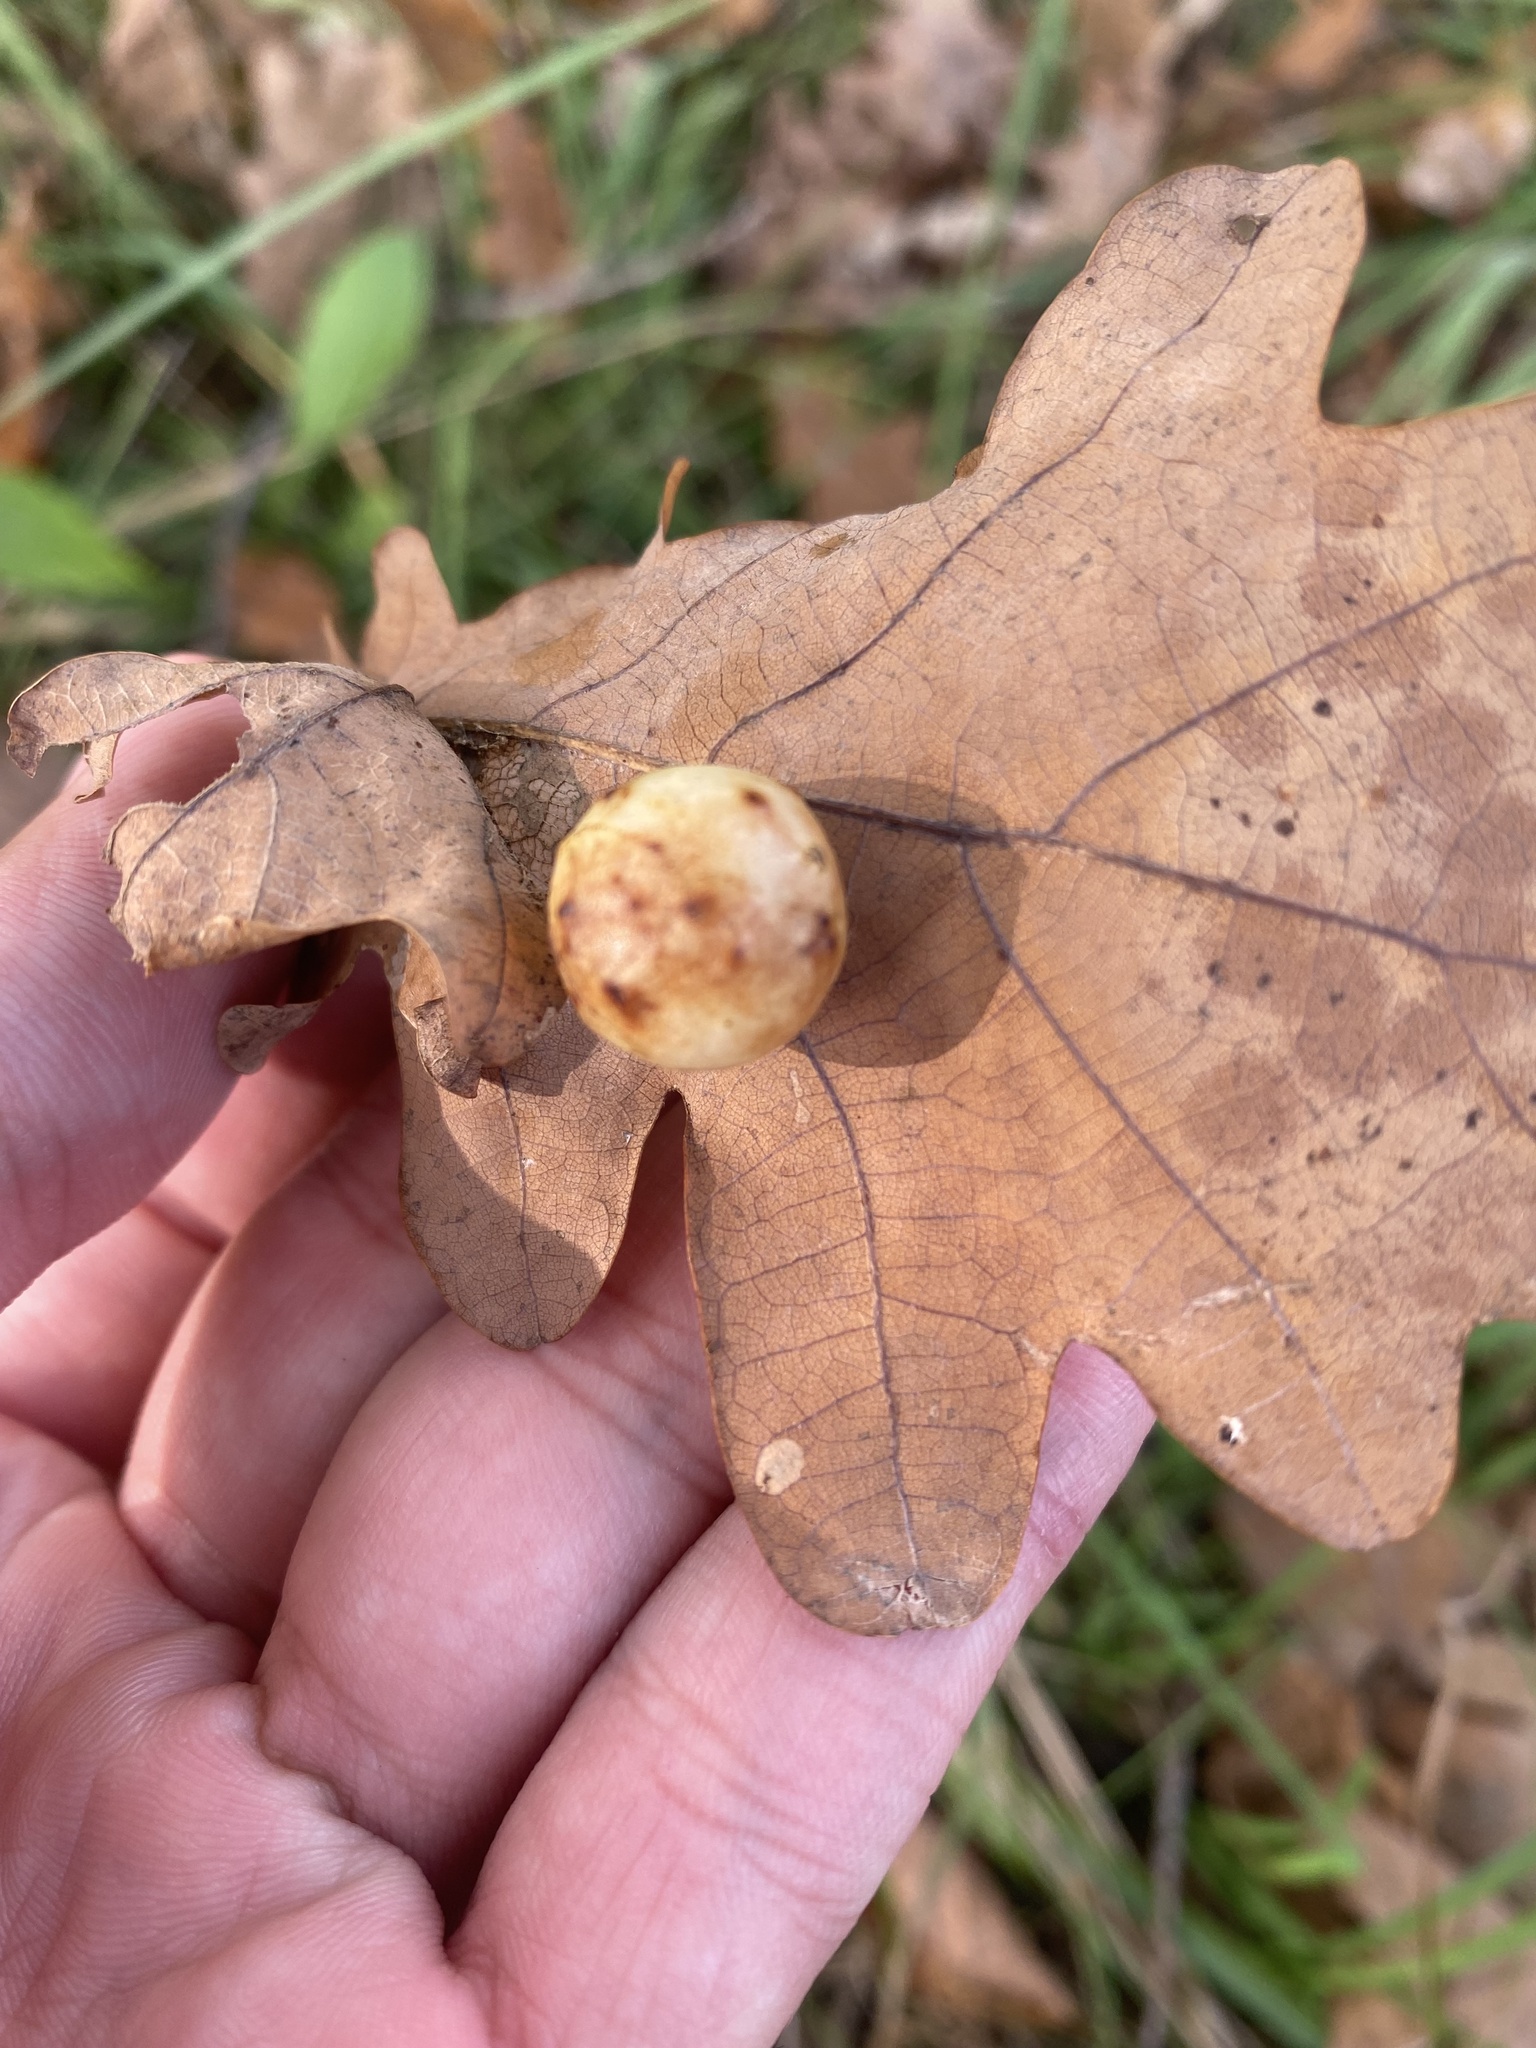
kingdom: Animalia
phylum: Arthropoda
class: Insecta
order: Hymenoptera
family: Cynipidae
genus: Cynips
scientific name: Cynips quercusfolii
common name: Cherry gall
